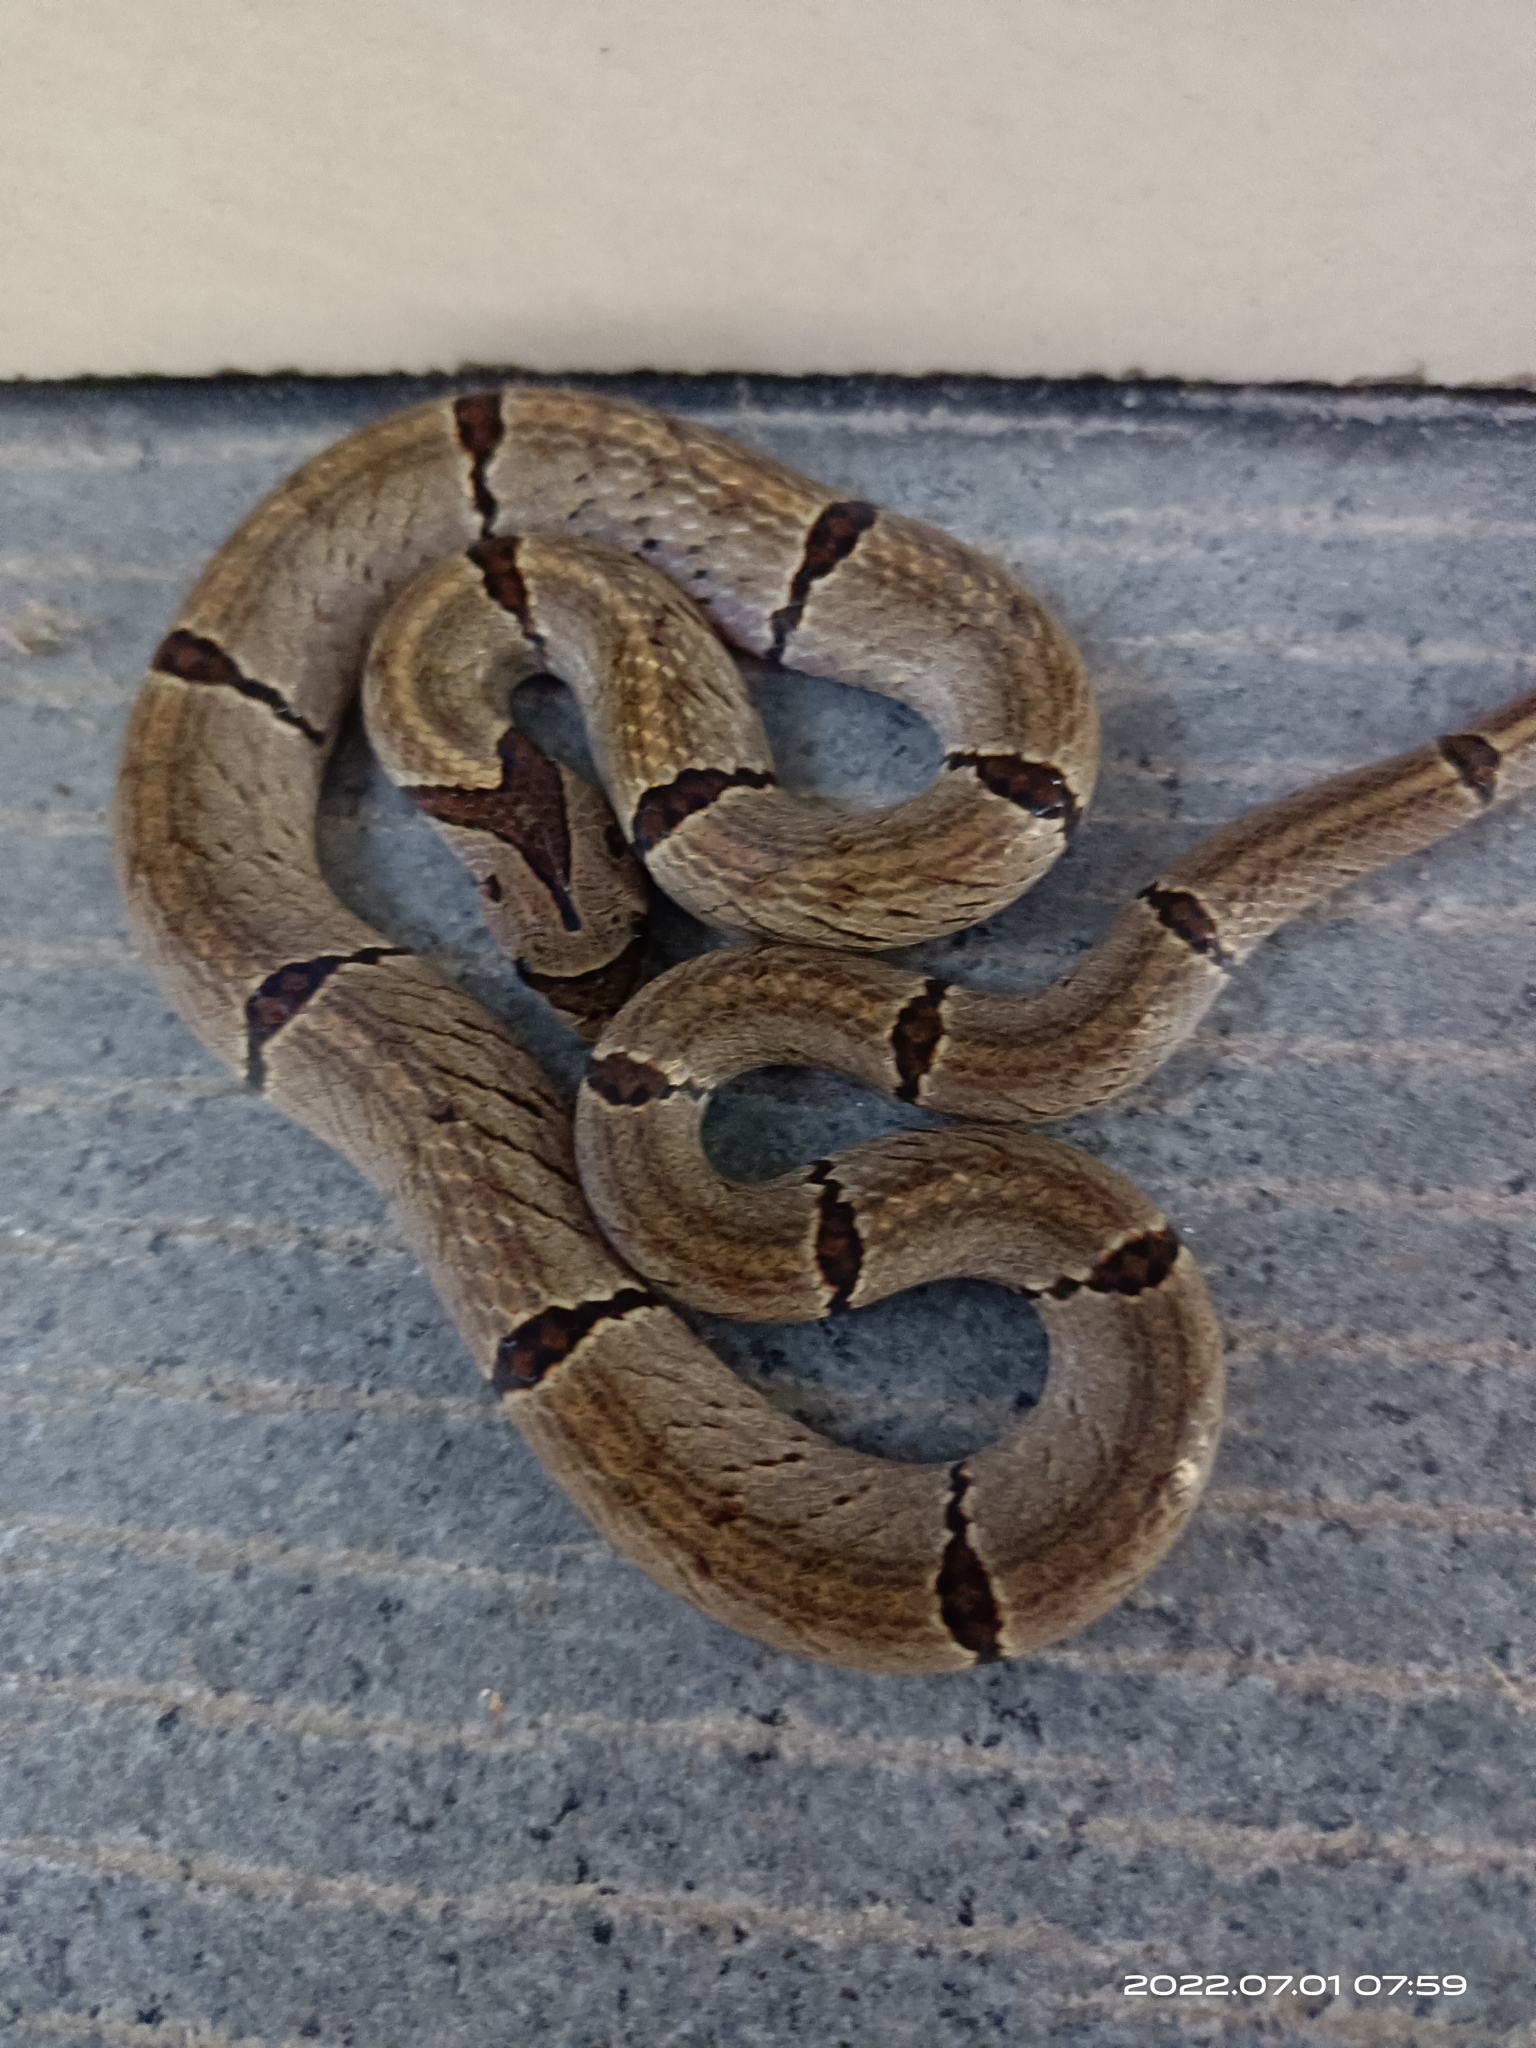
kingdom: Animalia
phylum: Chordata
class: Squamata
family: Colubridae
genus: Oligodon
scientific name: Oligodon chinensis
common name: Chinese kukri snake
